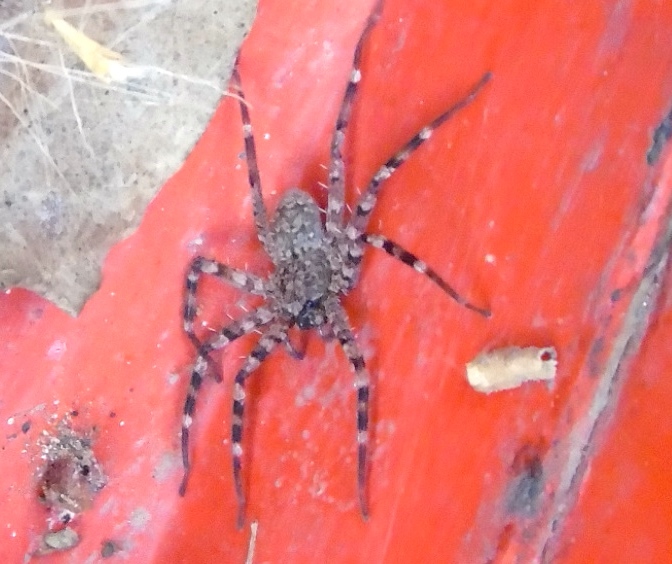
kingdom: Animalia
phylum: Arthropoda
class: Arachnida
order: Araneae
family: Selenopidae
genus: Selenops
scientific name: Selenops
